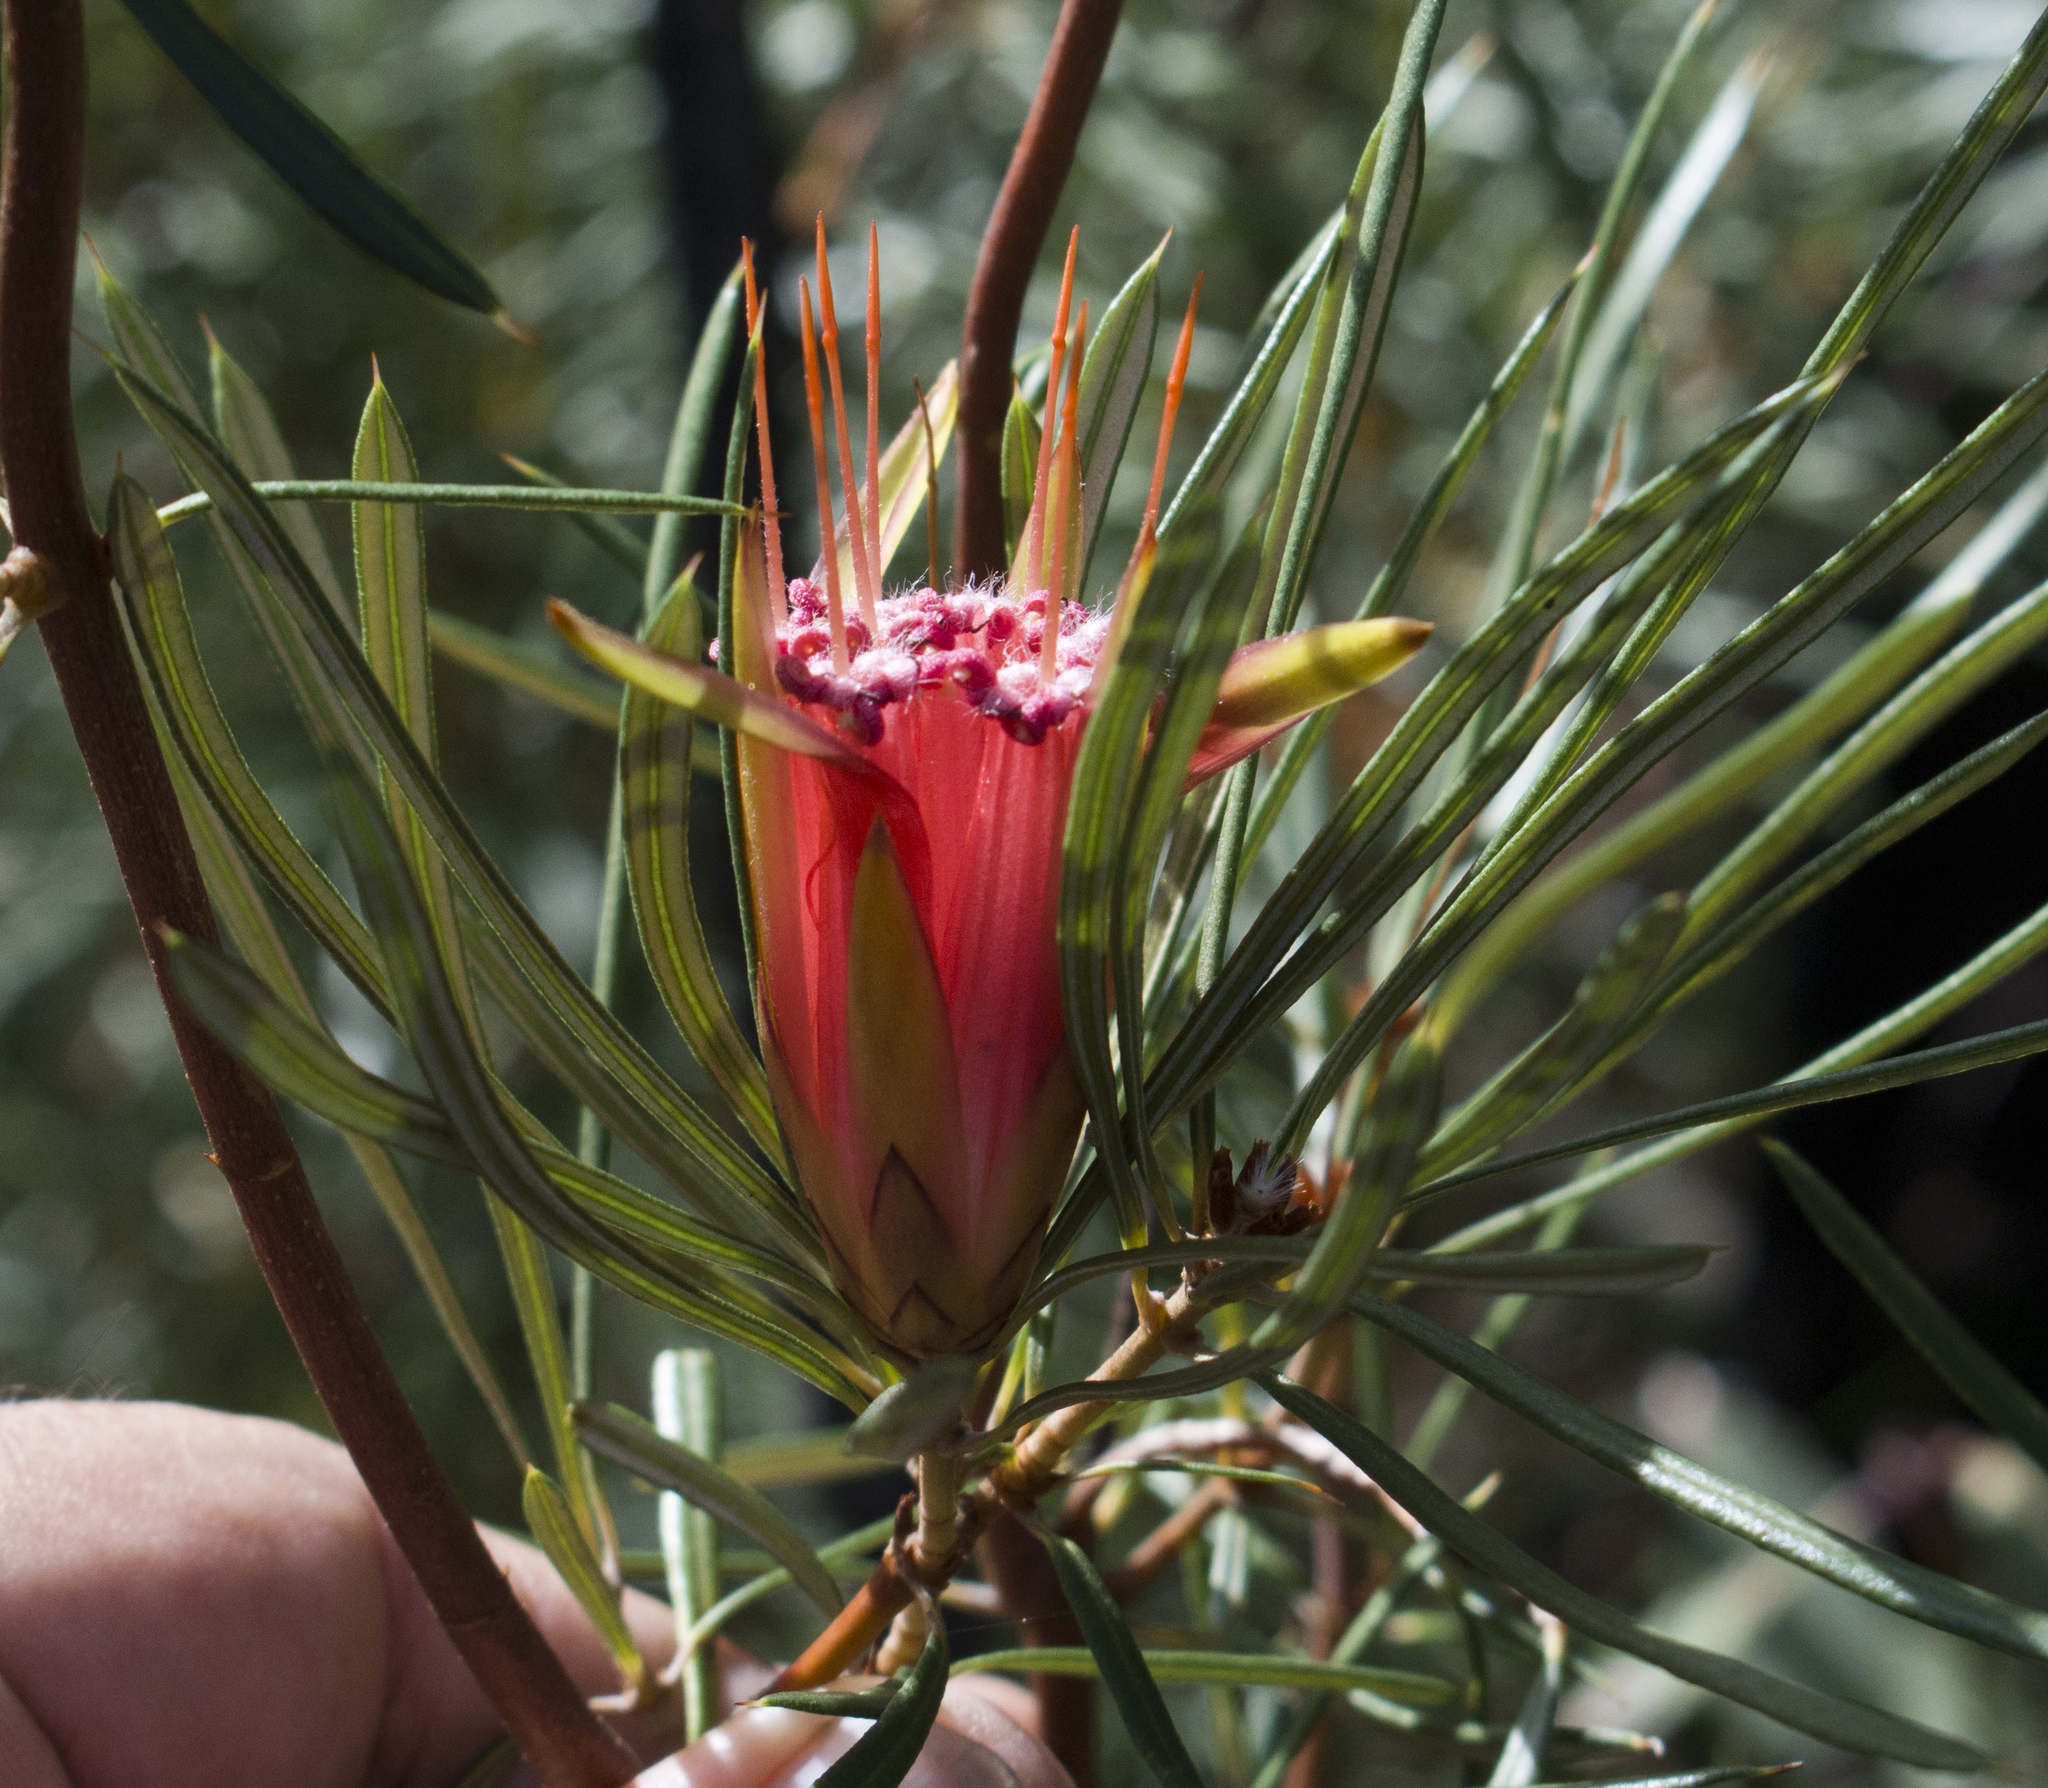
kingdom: Plantae
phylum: Tracheophyta
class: Magnoliopsida
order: Proteales
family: Proteaceae
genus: Lambertia
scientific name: Lambertia formosa
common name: Mountain-devil
